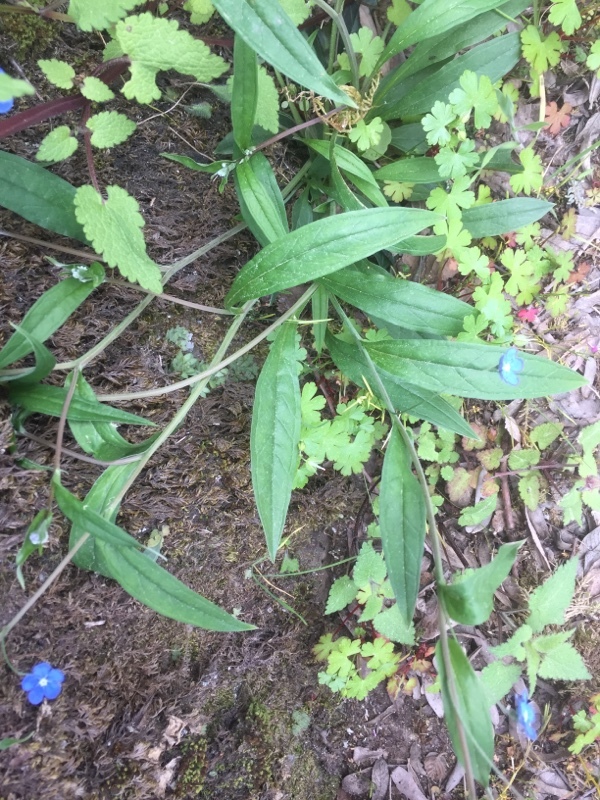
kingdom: Plantae
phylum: Tracheophyta
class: Magnoliopsida
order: Boraginales
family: Boraginaceae
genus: Omphalodes
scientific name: Omphalodes nitida
